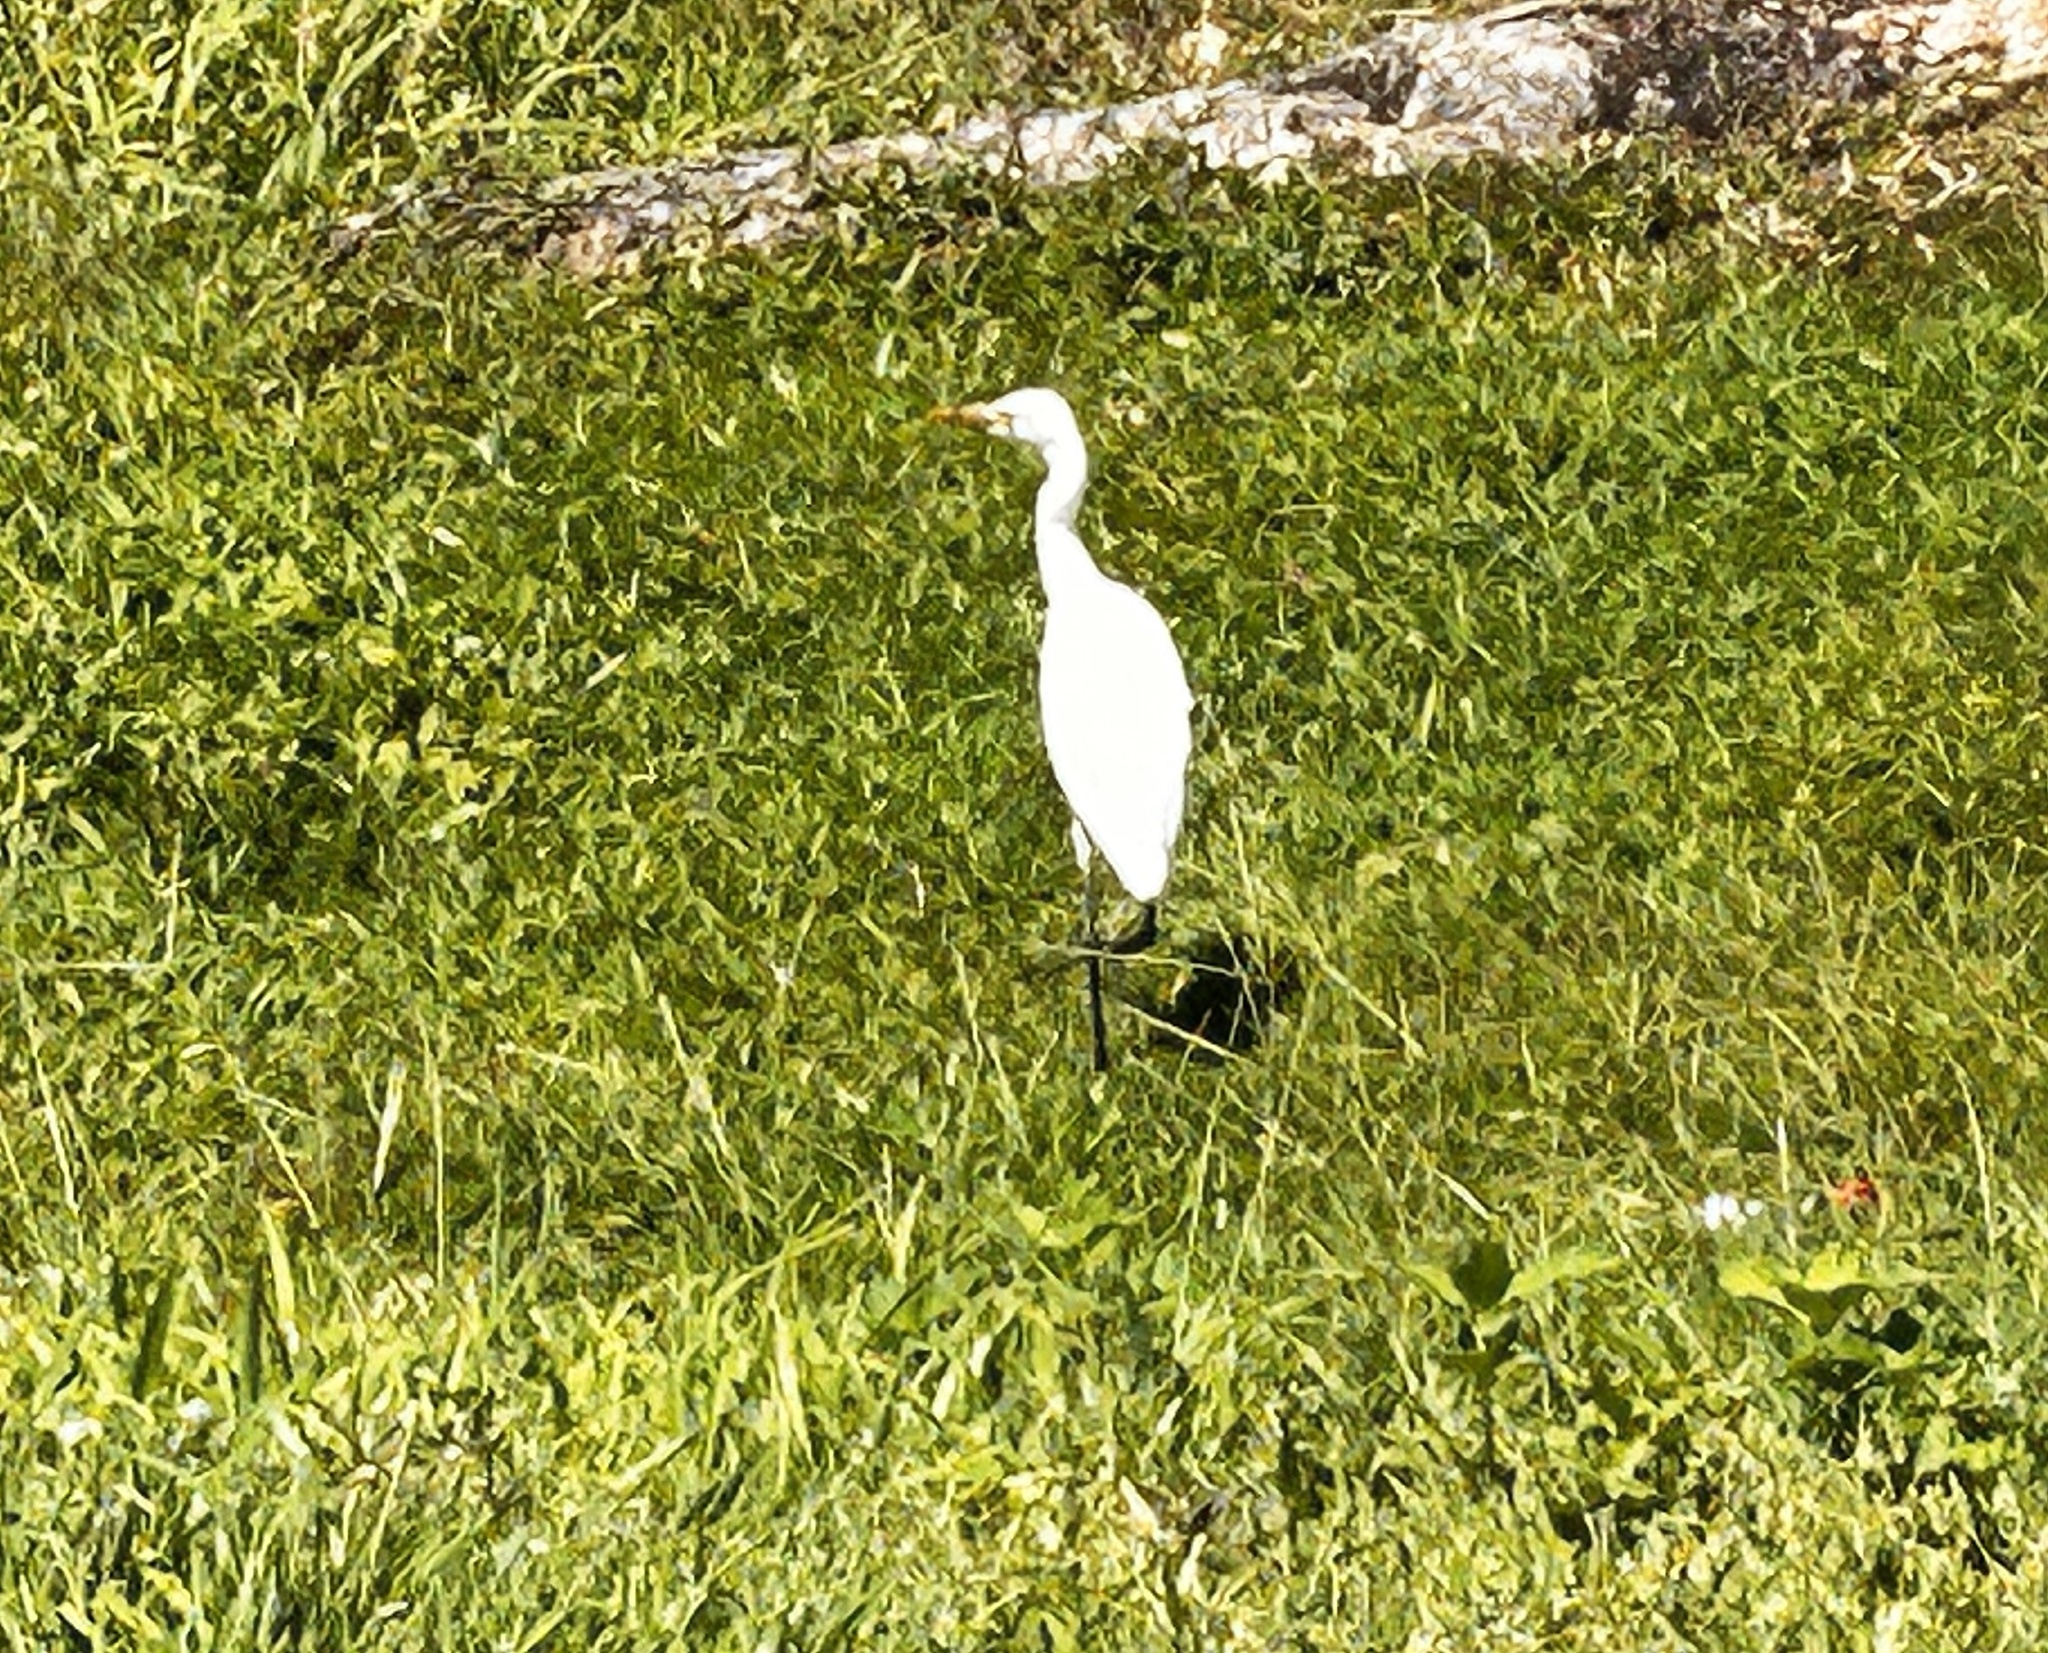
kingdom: Animalia
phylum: Chordata
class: Aves
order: Pelecaniformes
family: Ardeidae
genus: Bubulcus
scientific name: Bubulcus coromandus
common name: Eastern cattle egret
